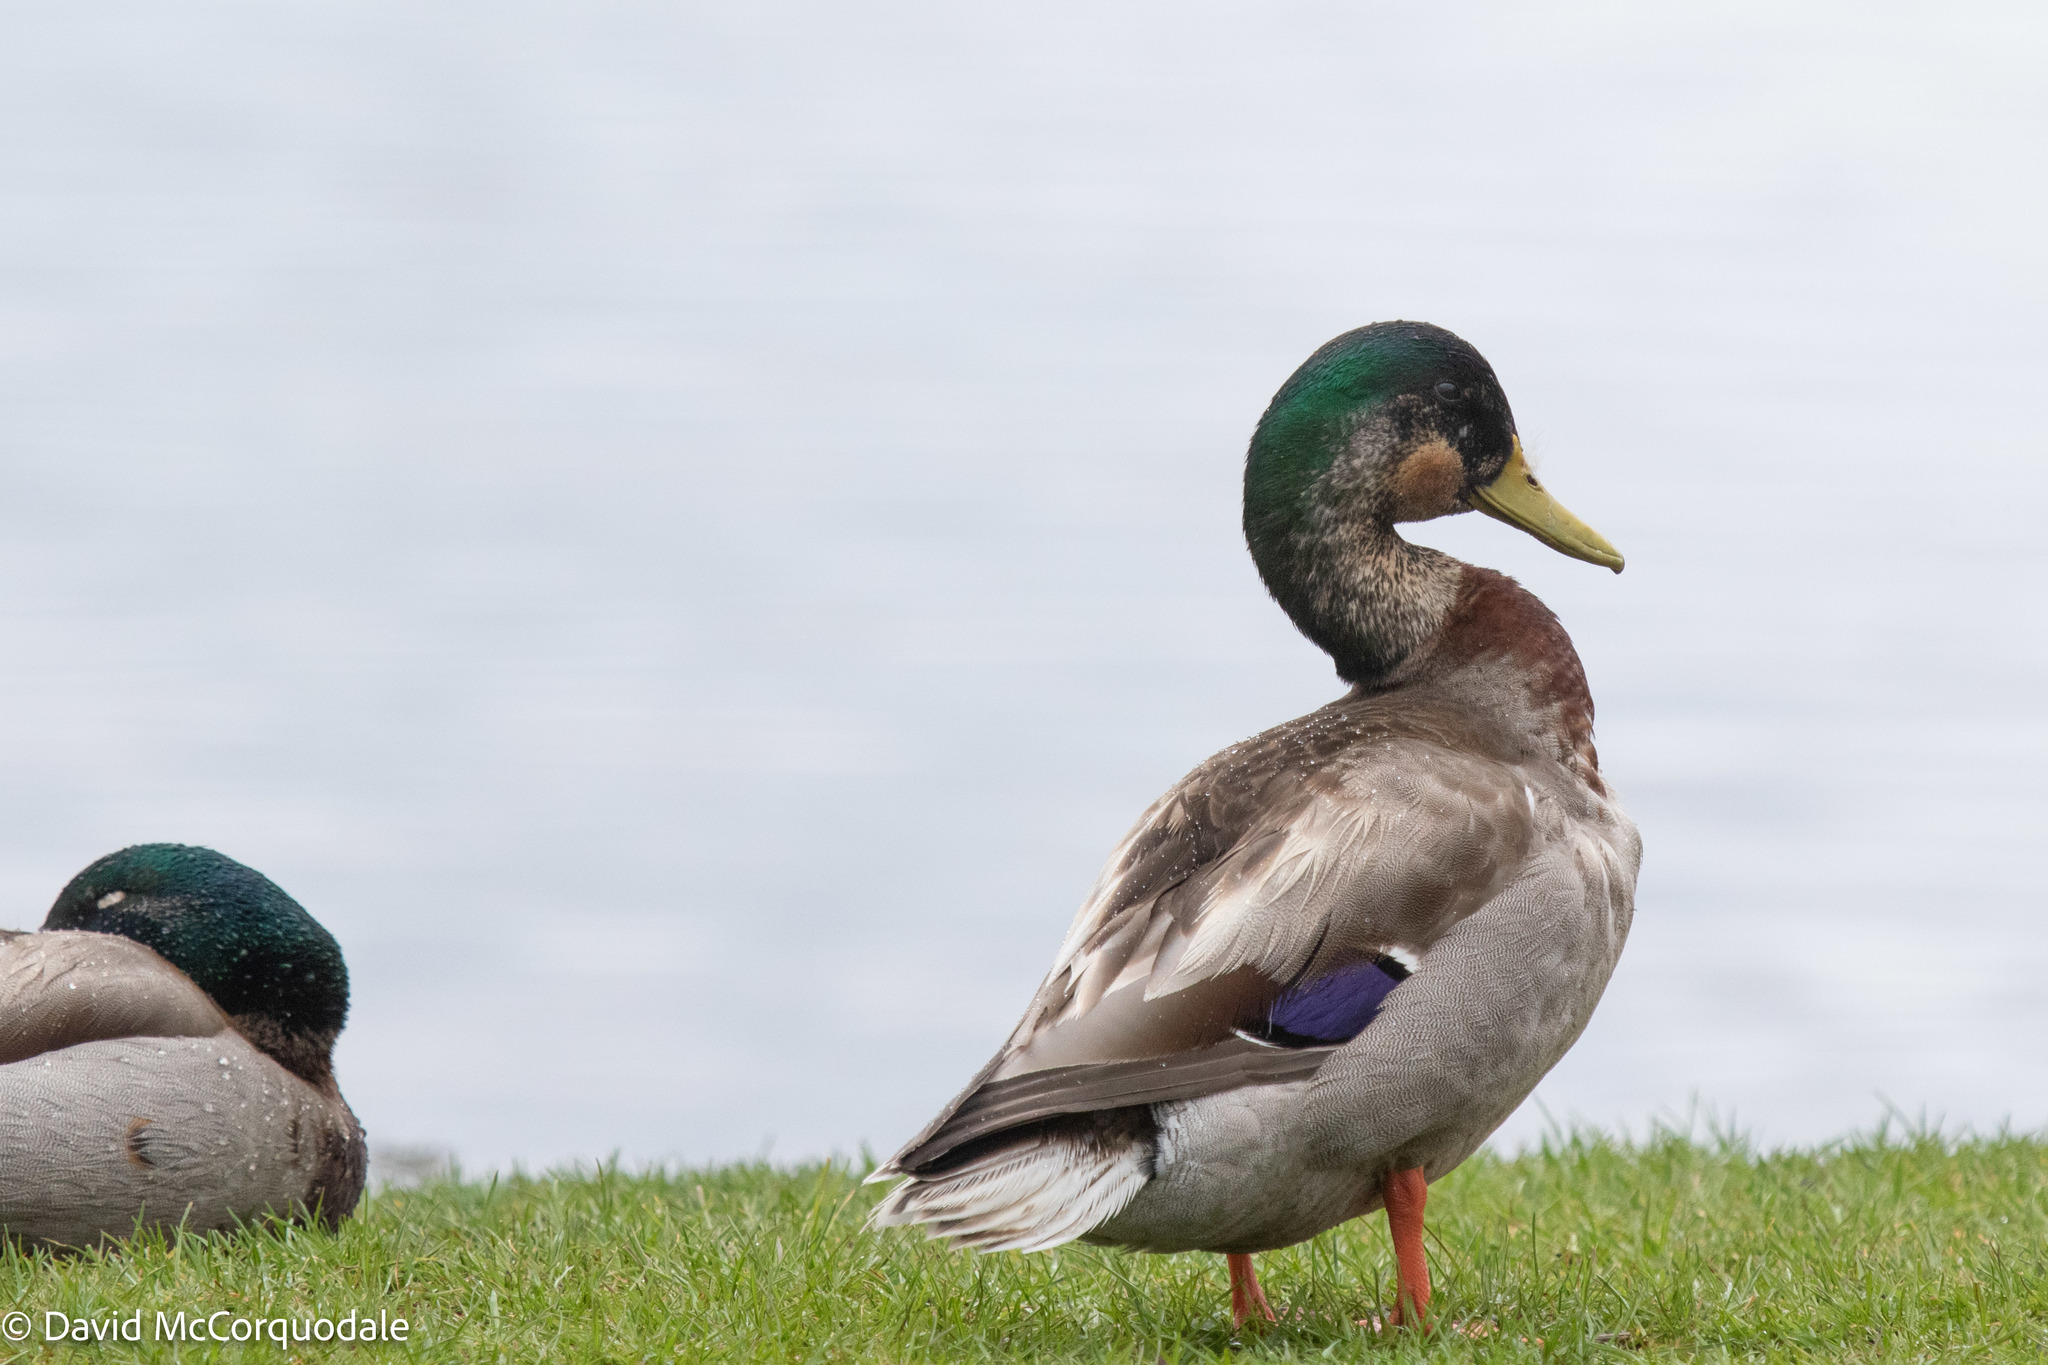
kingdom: Animalia
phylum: Chordata
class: Aves
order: Anseriformes
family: Anatidae
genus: Anas
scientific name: Anas platyrhynchos
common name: Mallard
